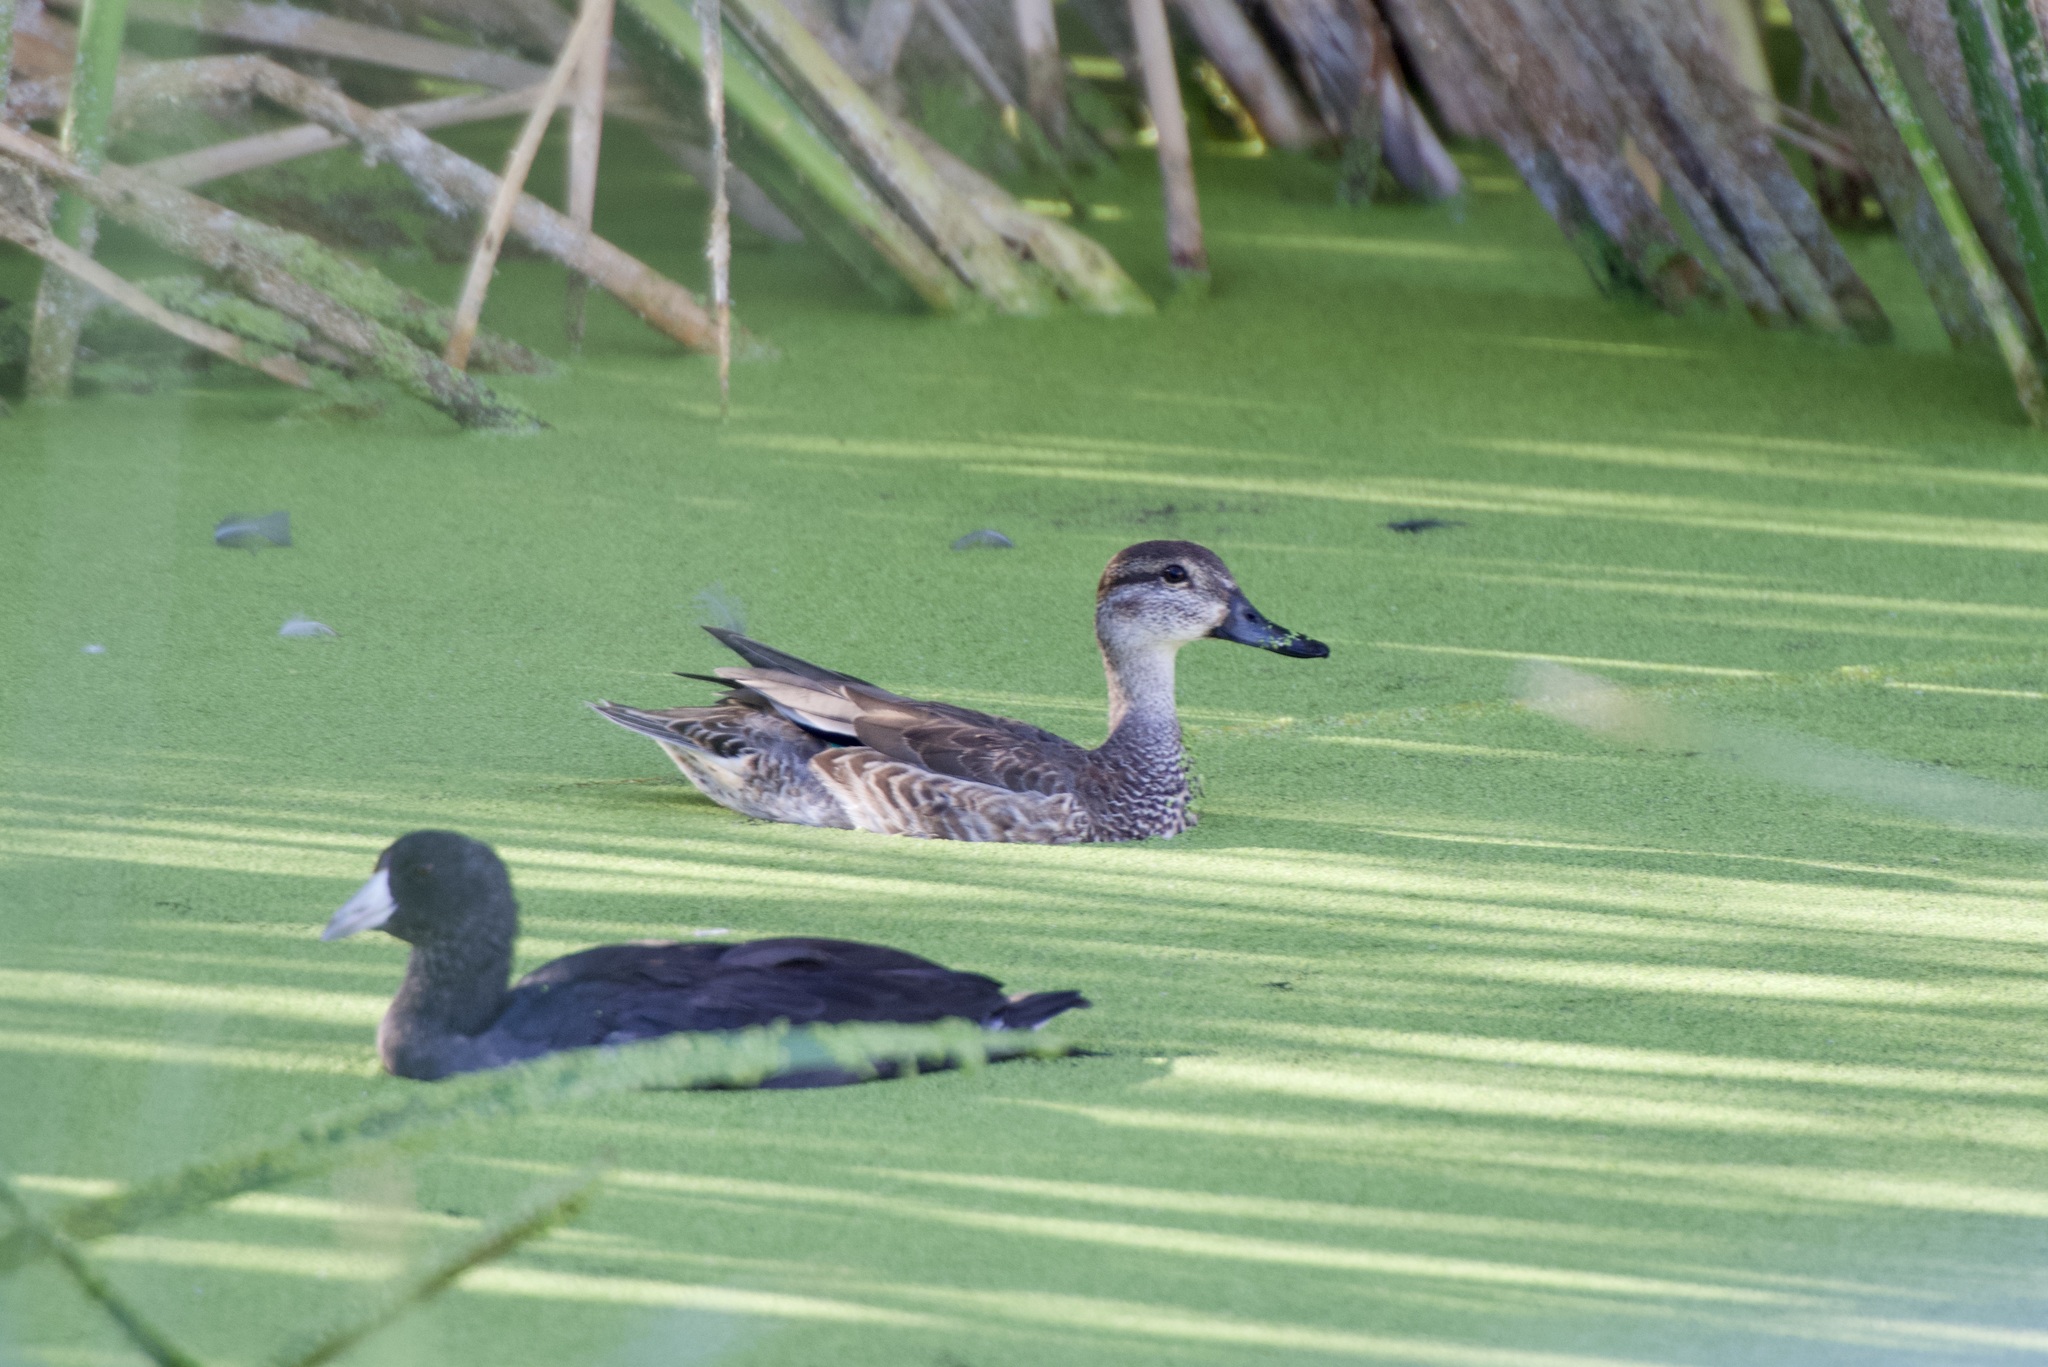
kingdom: Animalia
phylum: Chordata
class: Aves
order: Anseriformes
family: Anatidae
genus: Spatula
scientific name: Spatula discors
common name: Blue-winged teal
